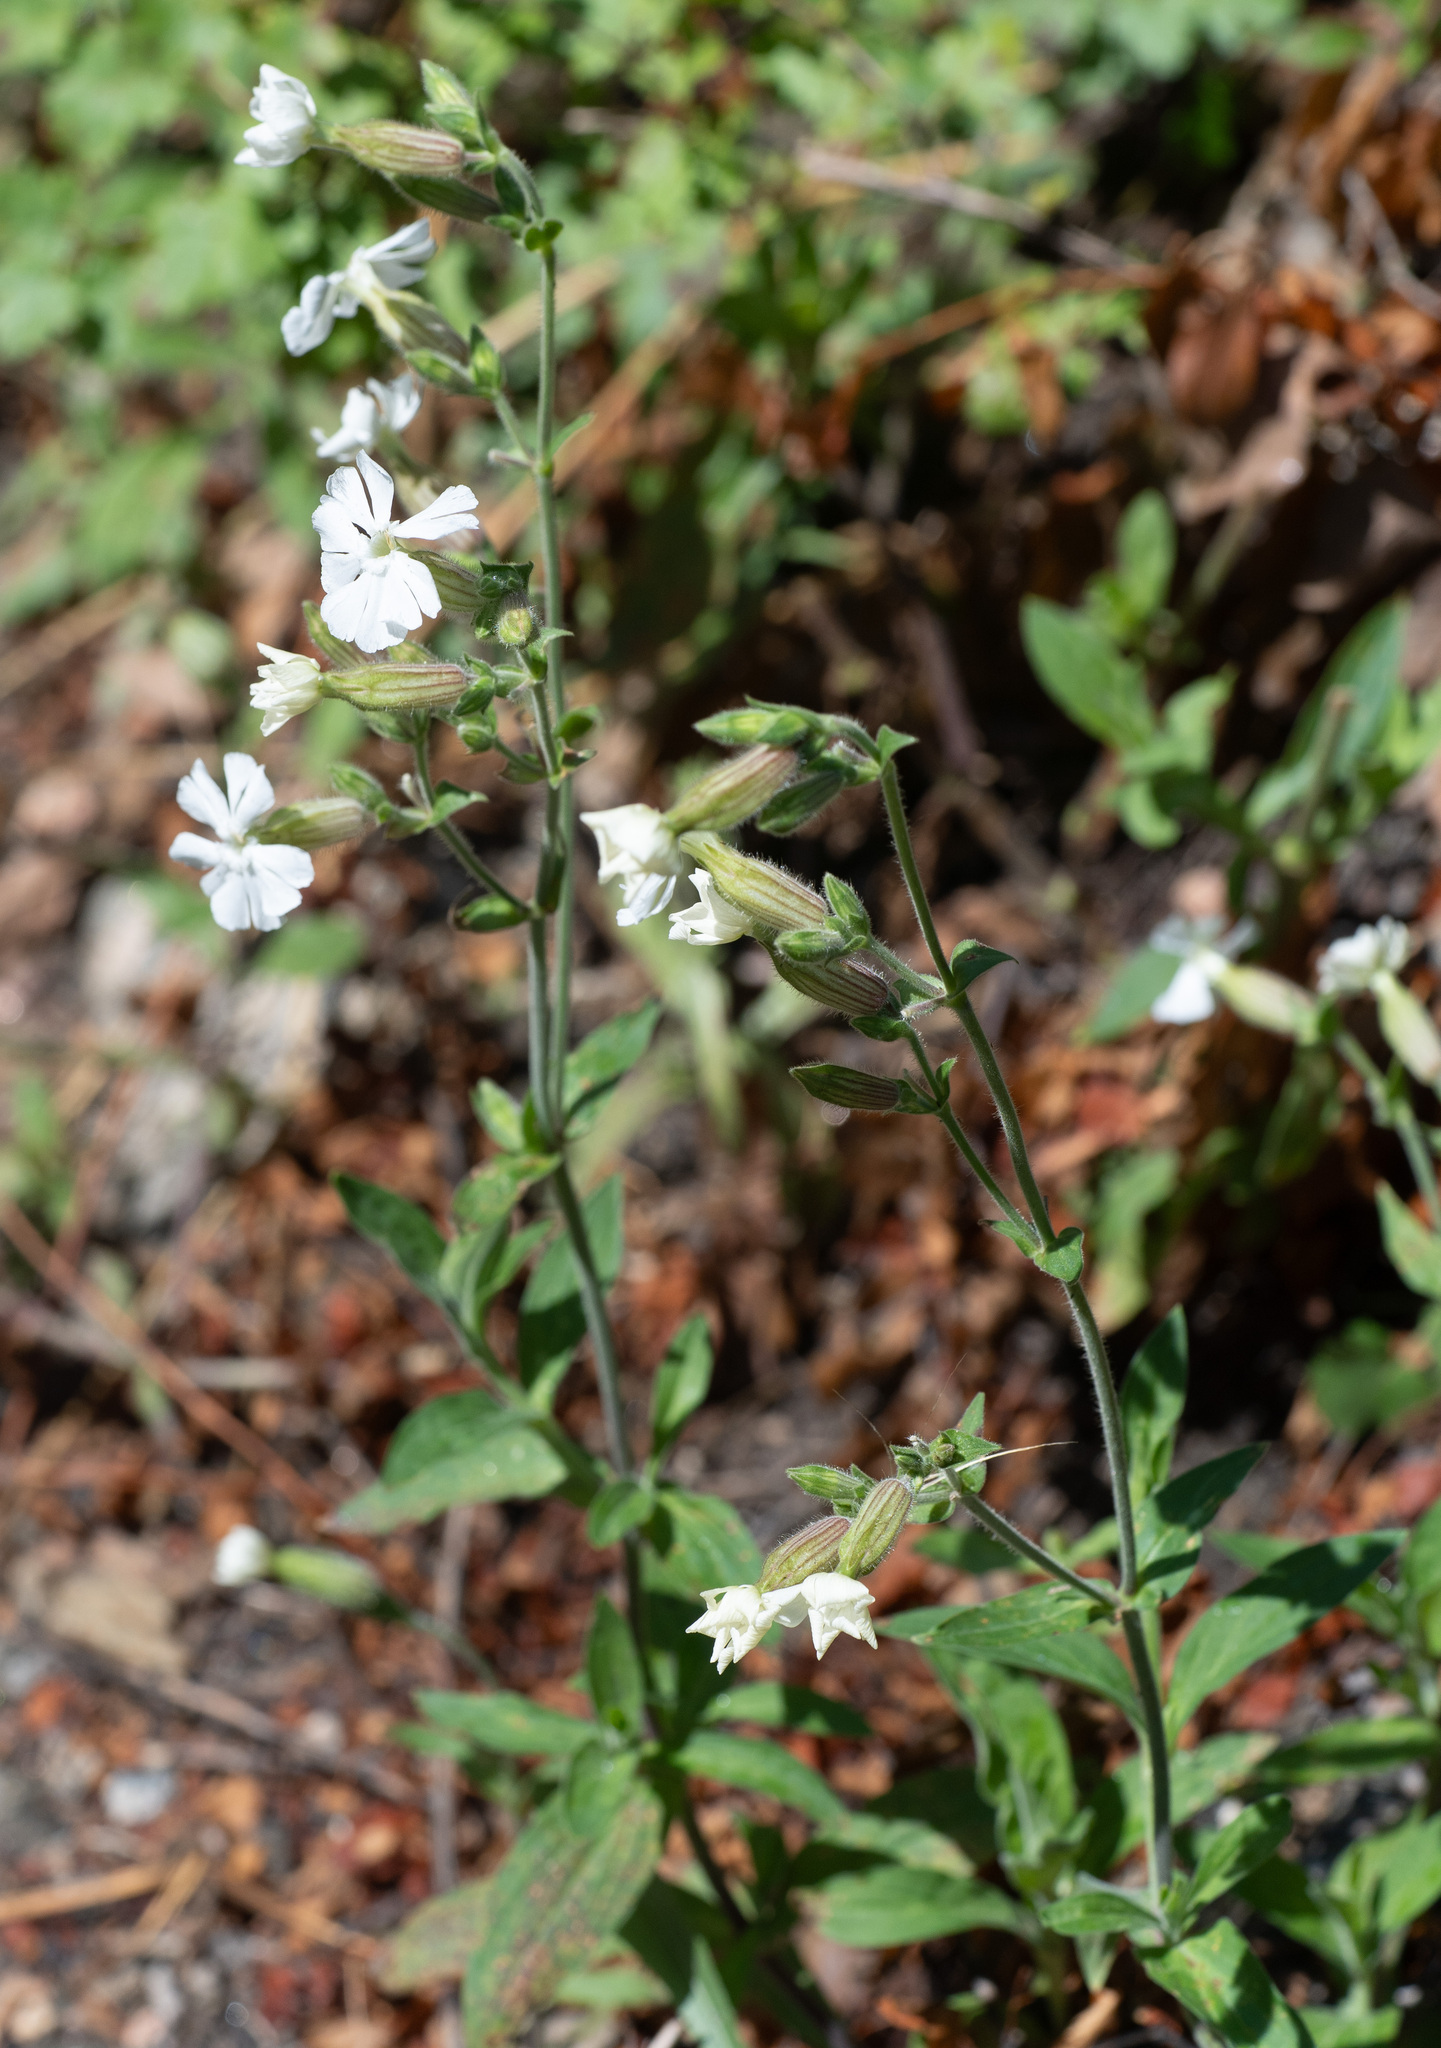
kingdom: Plantae
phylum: Tracheophyta
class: Magnoliopsida
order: Caryophyllales
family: Caryophyllaceae
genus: Silene
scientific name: Silene latifolia
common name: White campion
